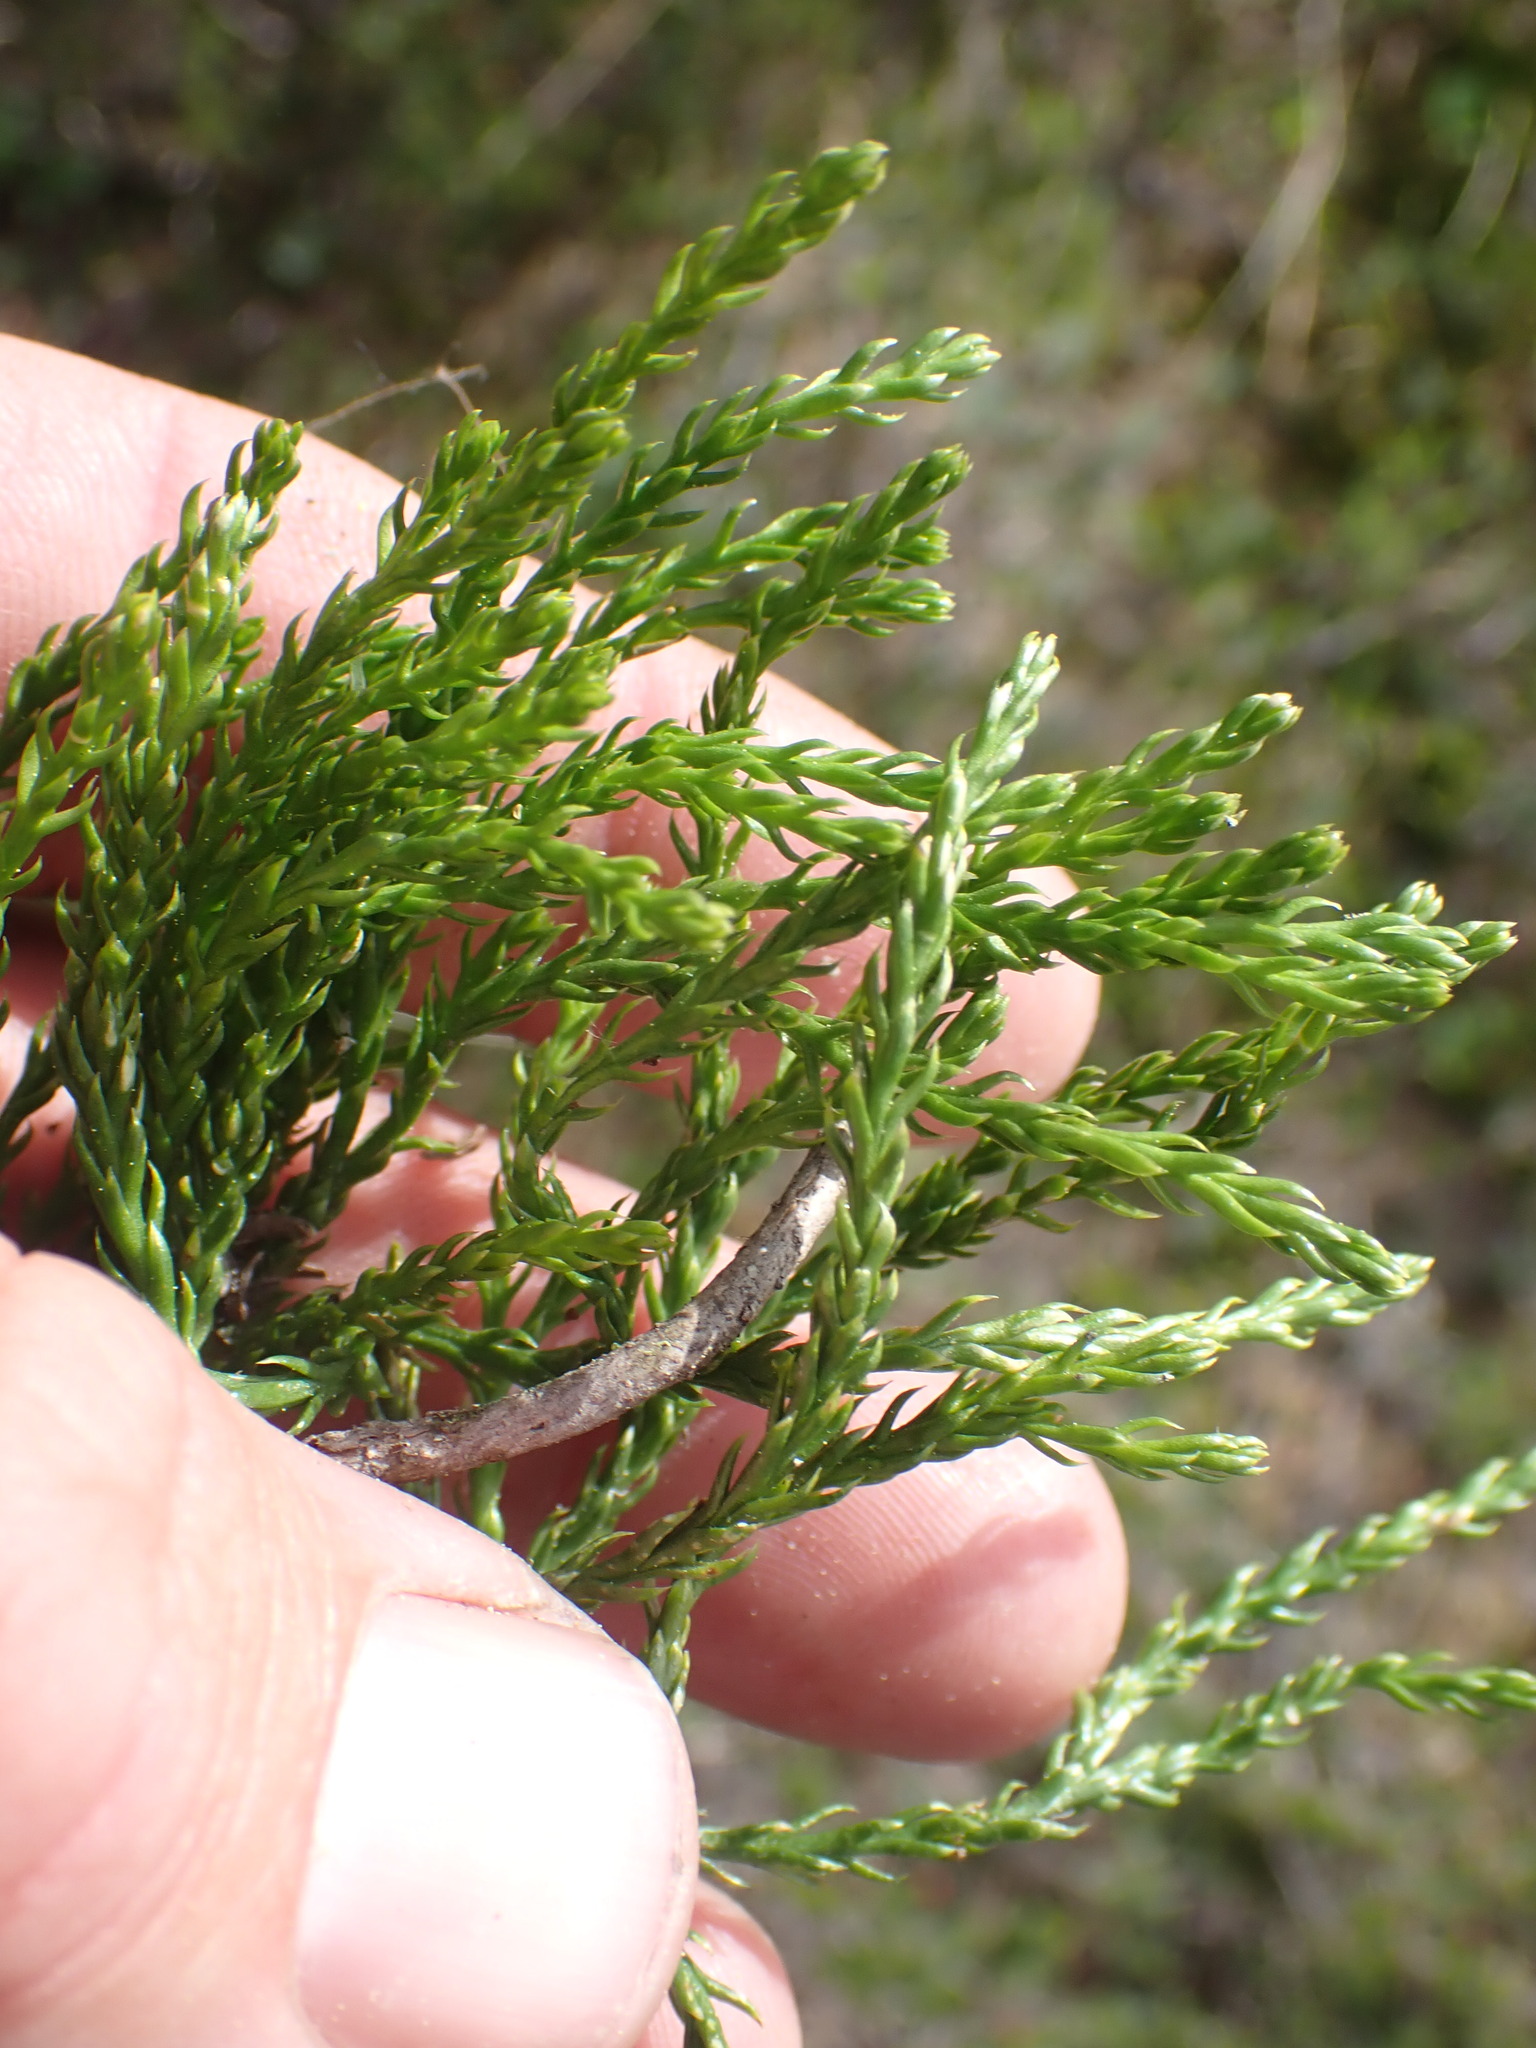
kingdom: Plantae
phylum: Tracheophyta
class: Lycopodiopsida
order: Lycopodiales
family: Lycopodiaceae
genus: Diphasiastrum
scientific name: Diphasiastrum sitchense
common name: Alaska clubmoss
